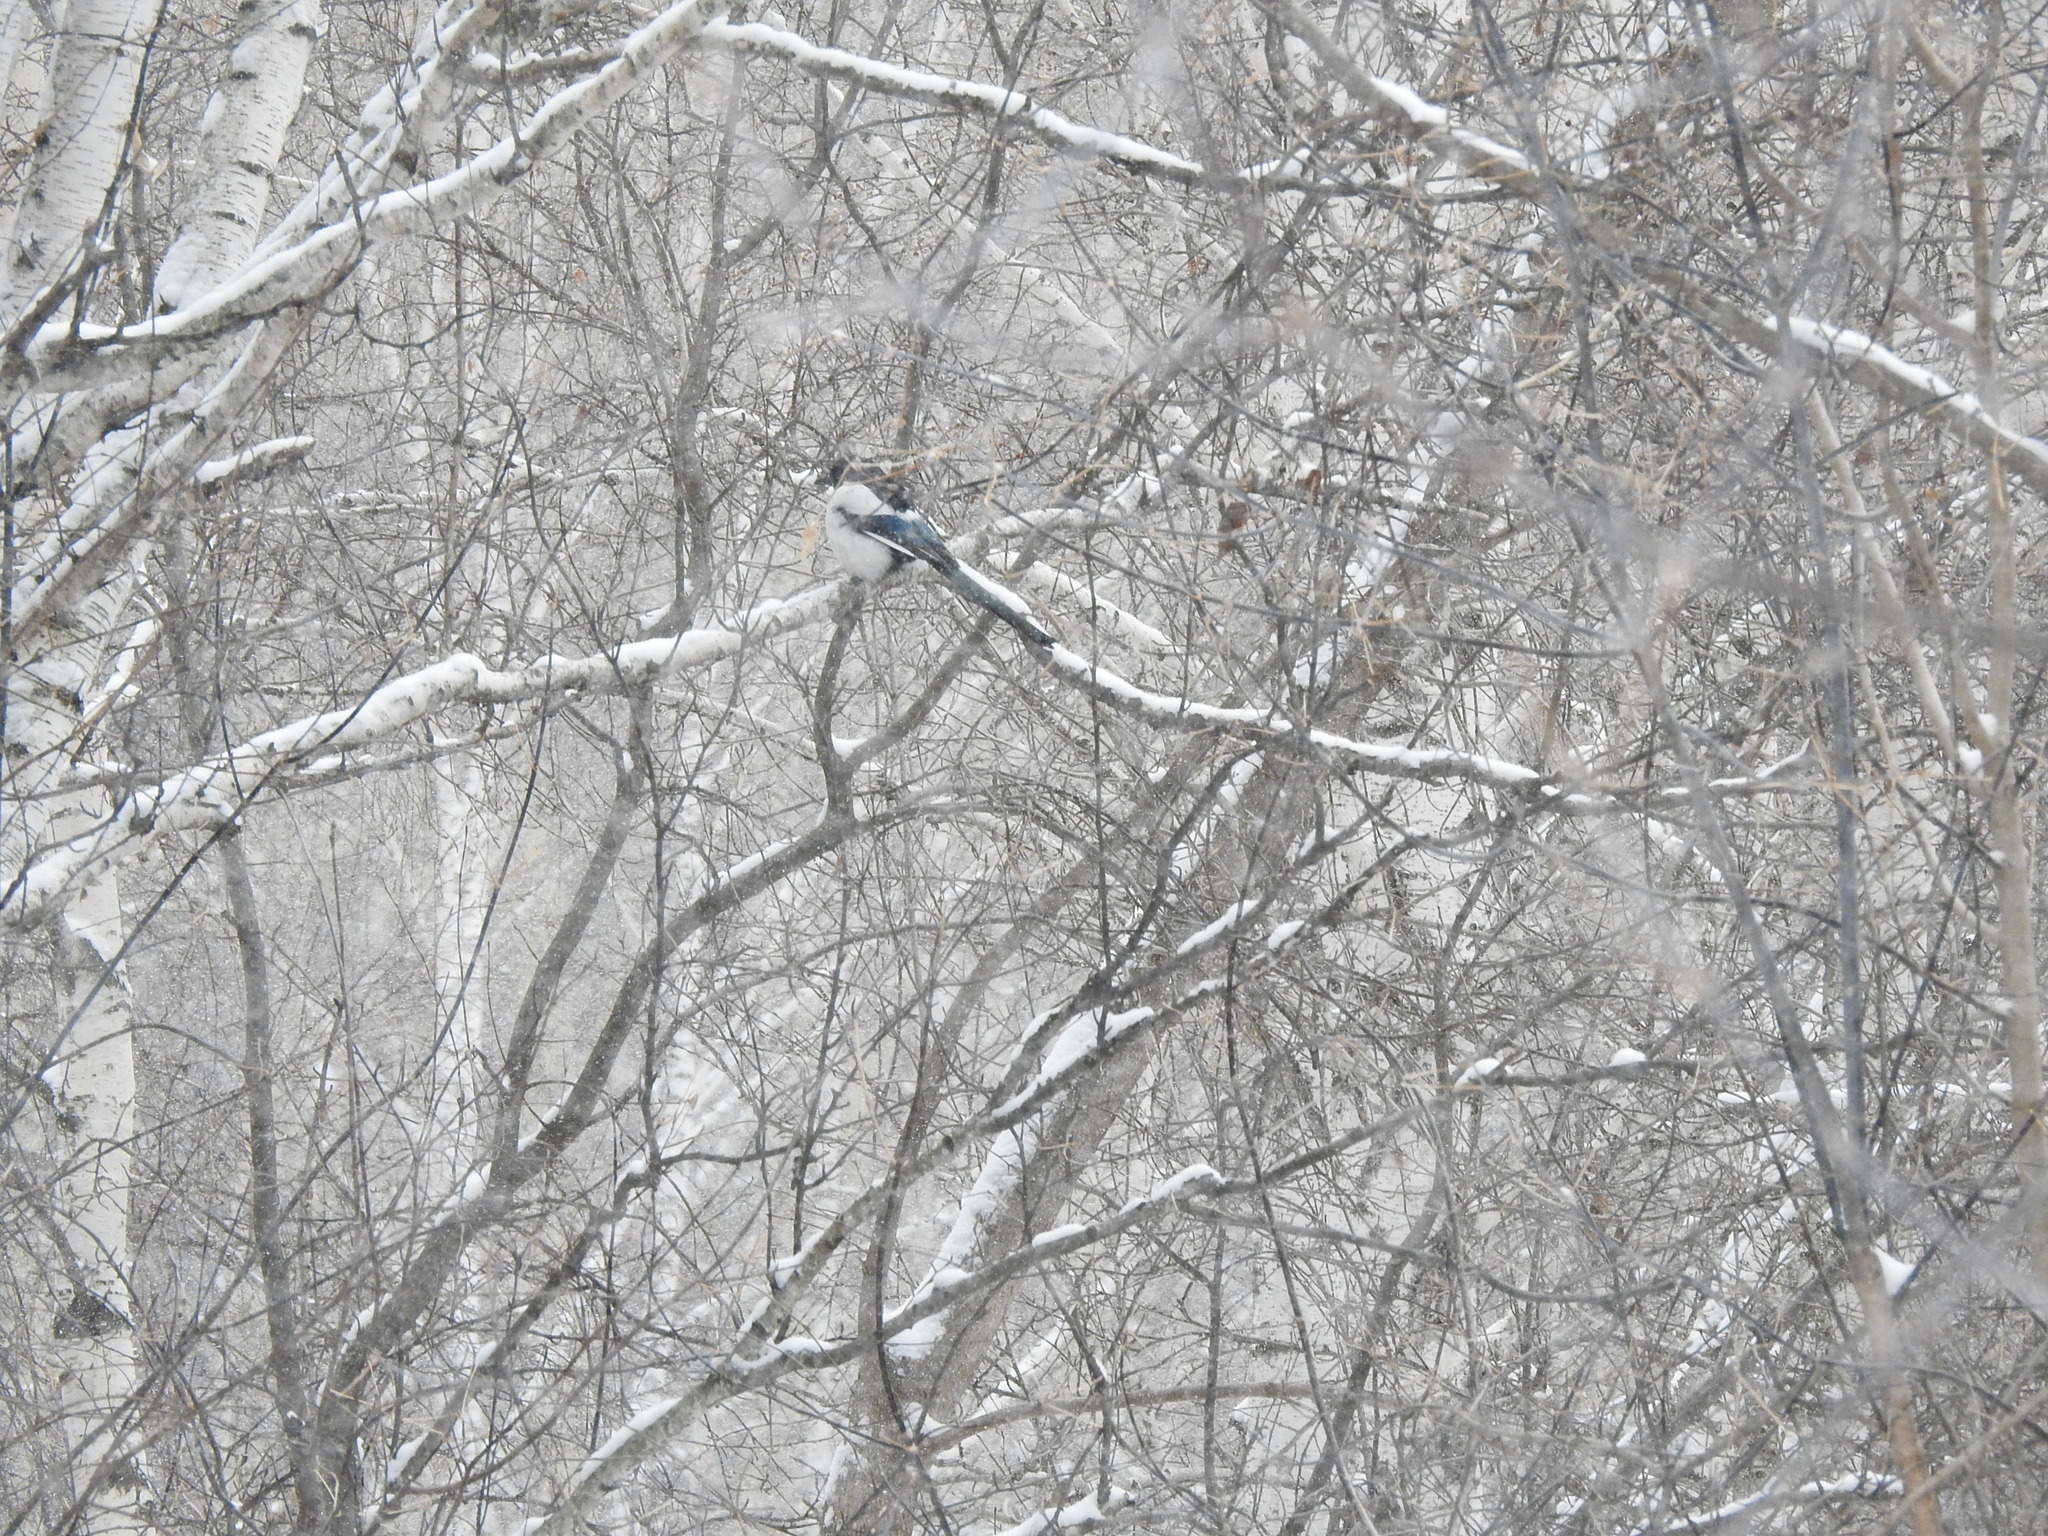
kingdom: Animalia
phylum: Chordata
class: Aves
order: Passeriformes
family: Corvidae
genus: Pica
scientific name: Pica pica
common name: Eurasian magpie
